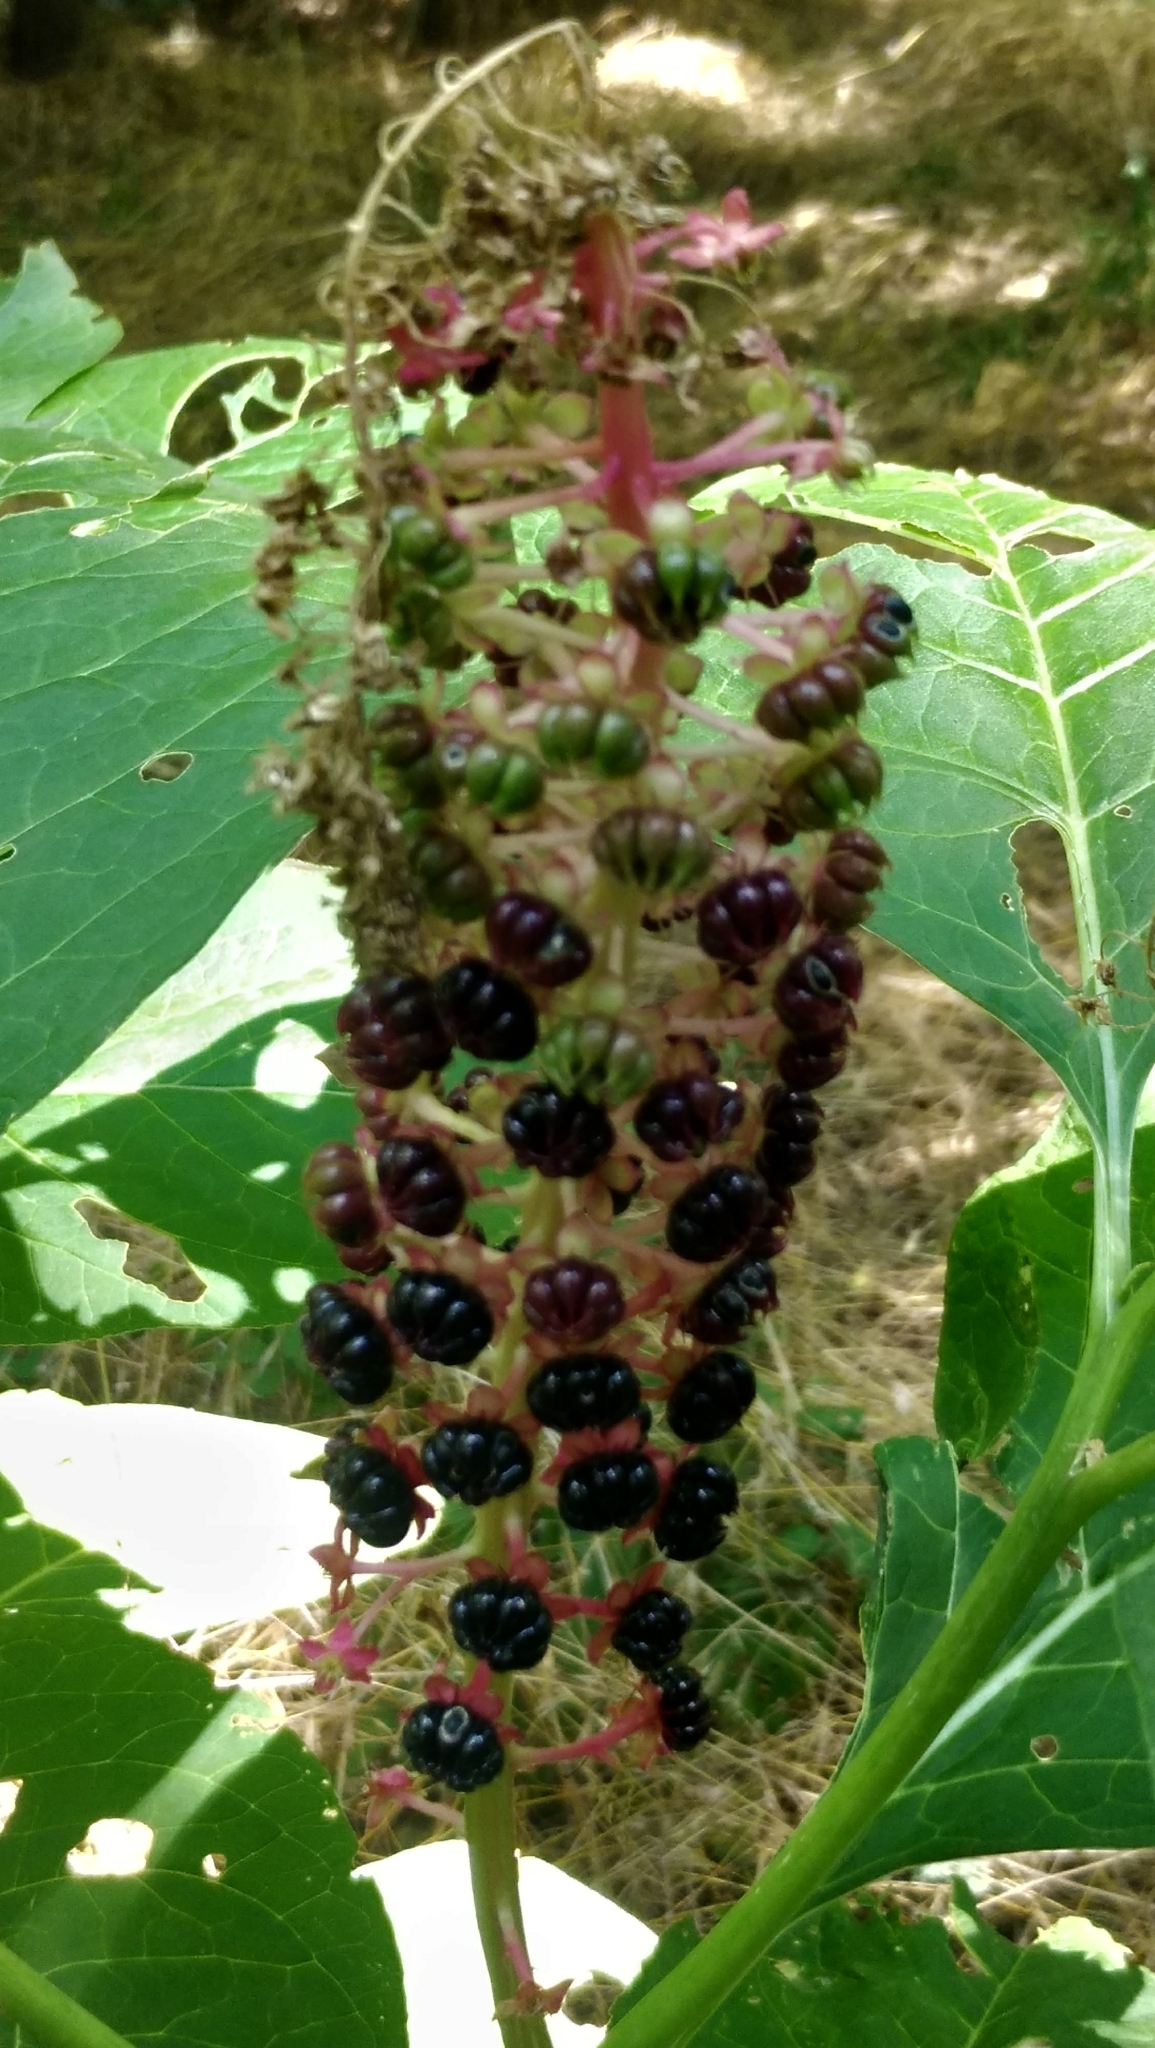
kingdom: Plantae
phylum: Tracheophyta
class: Magnoliopsida
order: Caryophyllales
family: Phytolaccaceae
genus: Phytolacca
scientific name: Phytolacca acinosa
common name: Indian pokeweed
